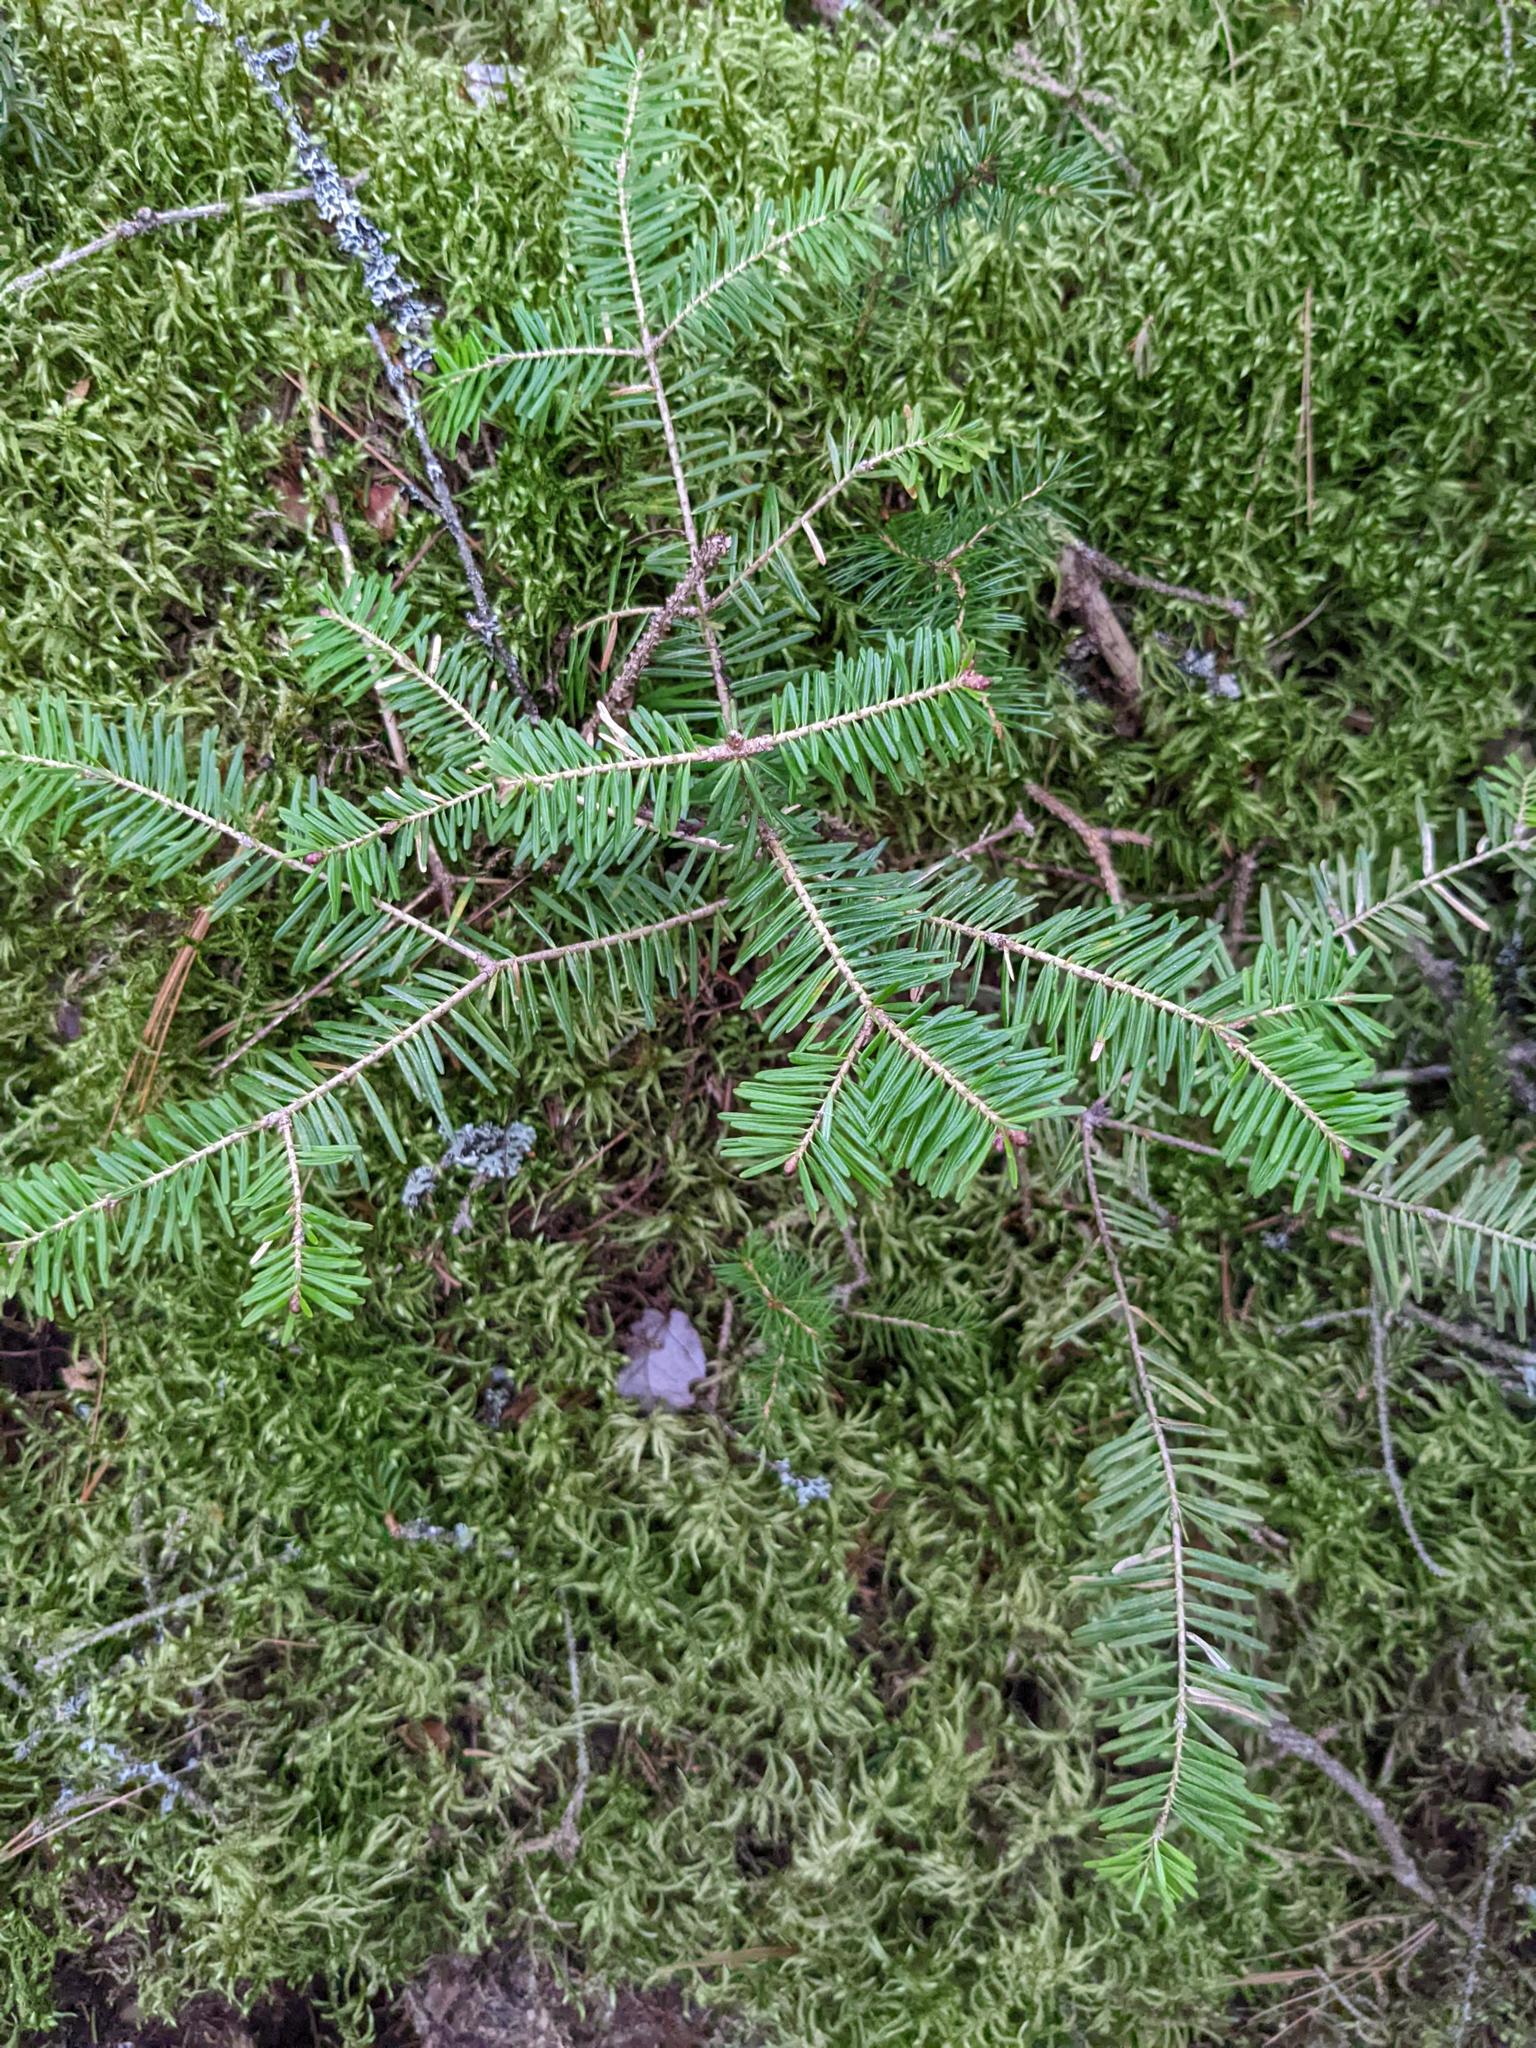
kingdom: Plantae
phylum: Tracheophyta
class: Pinopsida
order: Pinales
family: Pinaceae
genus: Abies
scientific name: Abies balsamea
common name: Balsam fir
